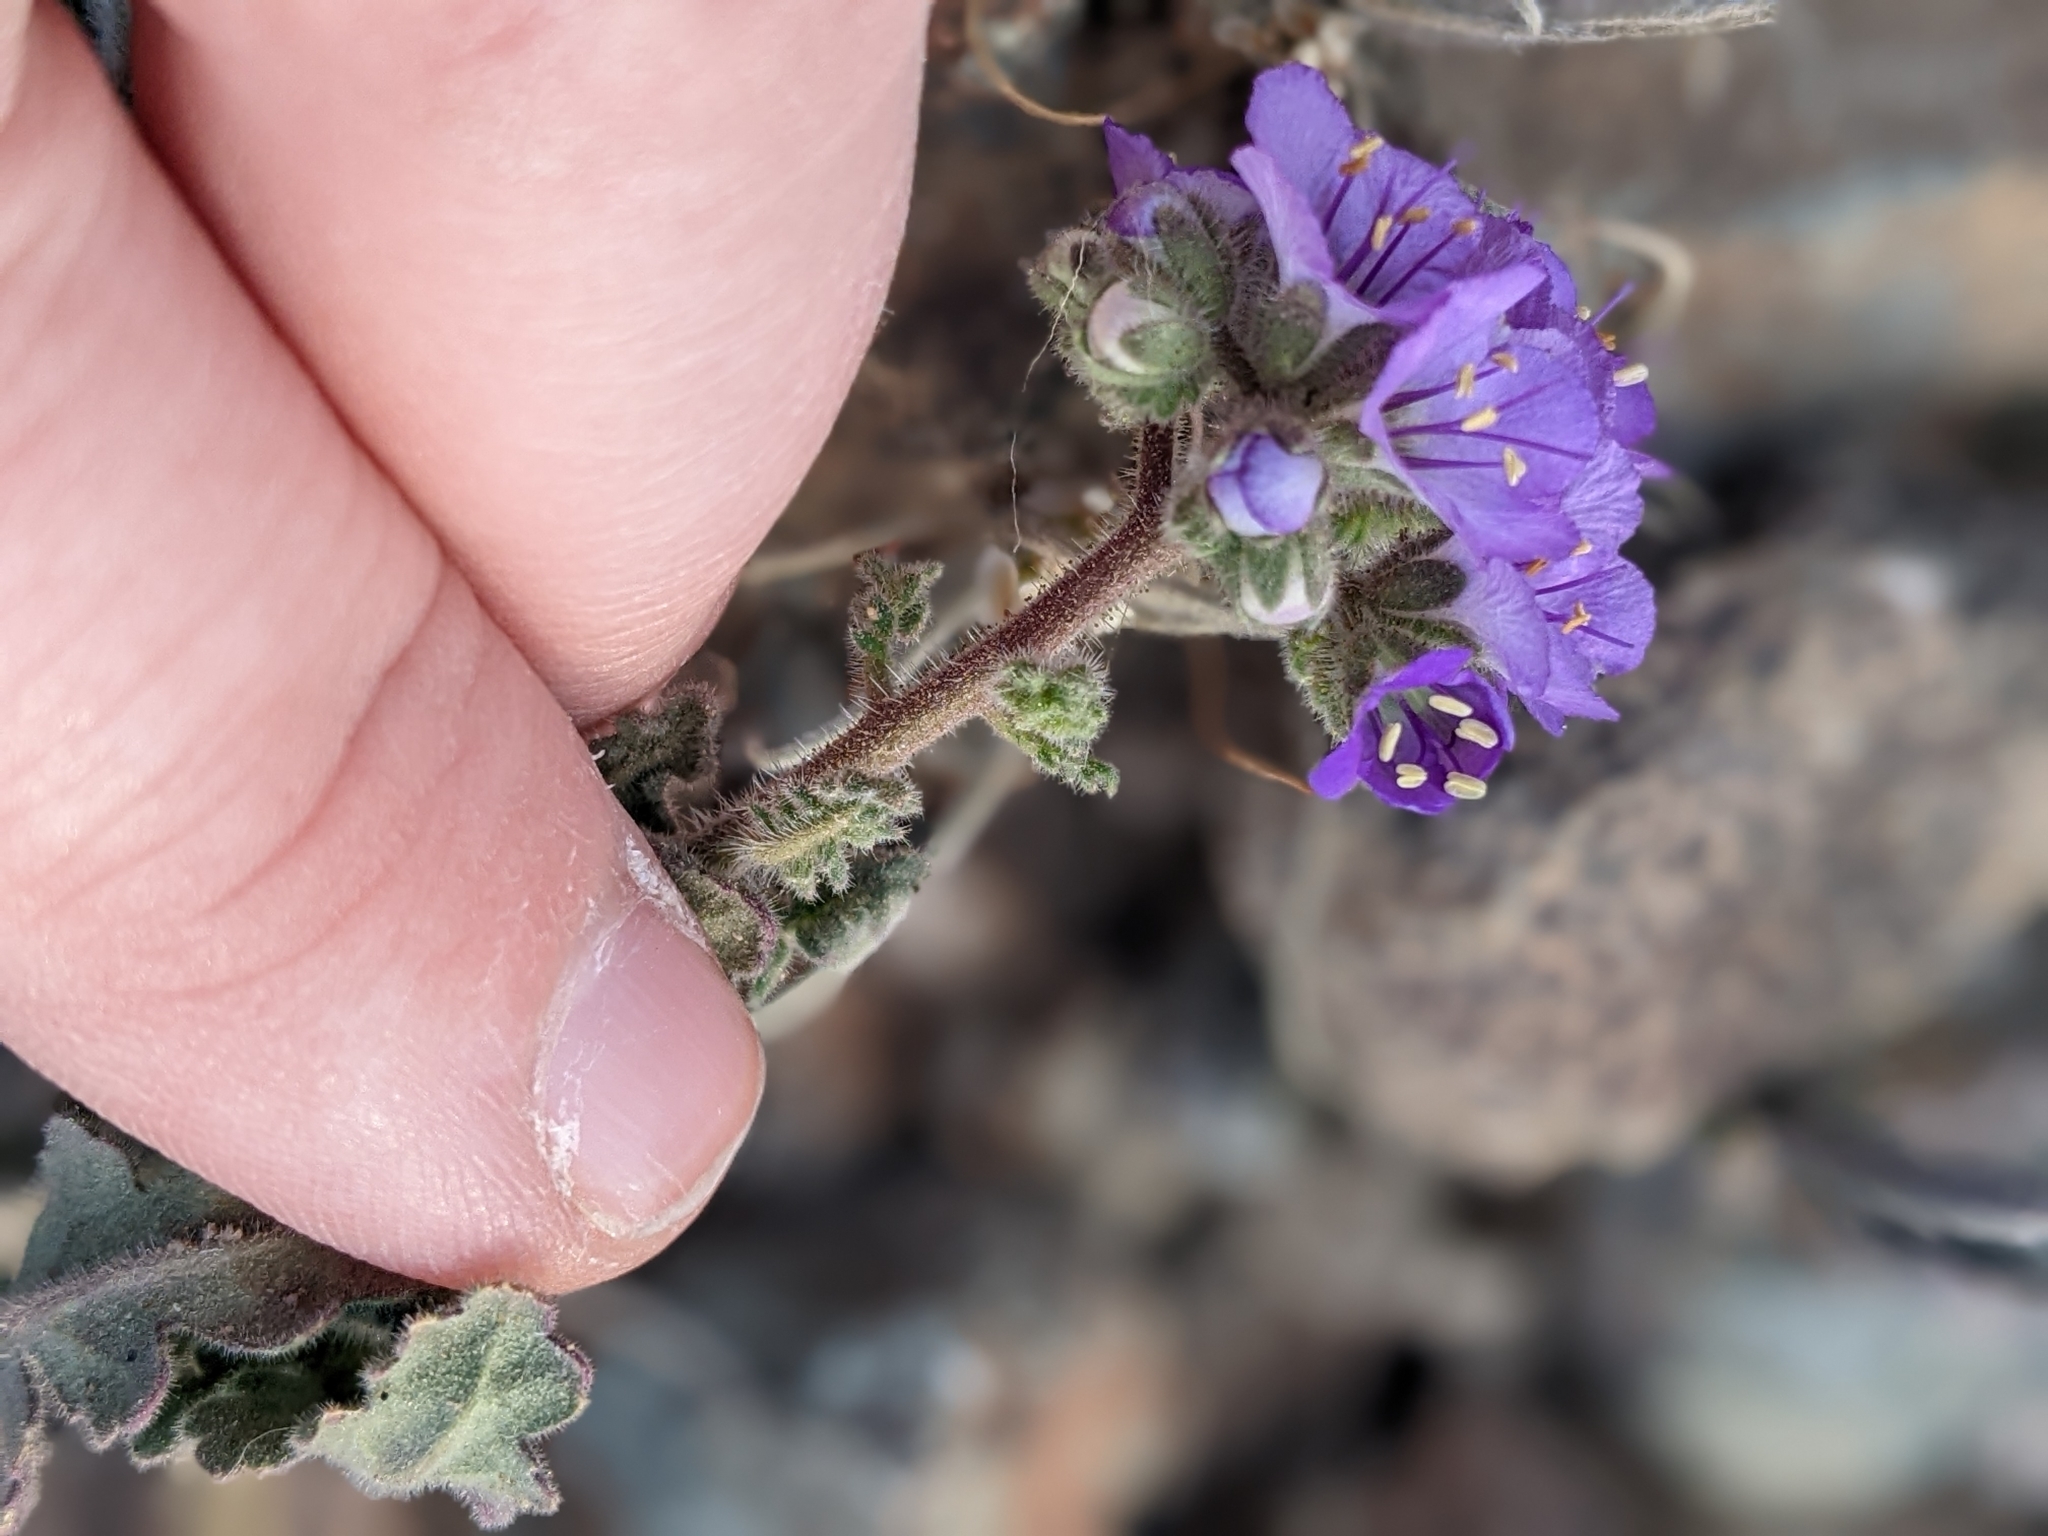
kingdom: Plantae
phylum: Tracheophyta
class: Magnoliopsida
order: Boraginales
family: Hydrophyllaceae
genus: Phacelia
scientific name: Phacelia crenulata
